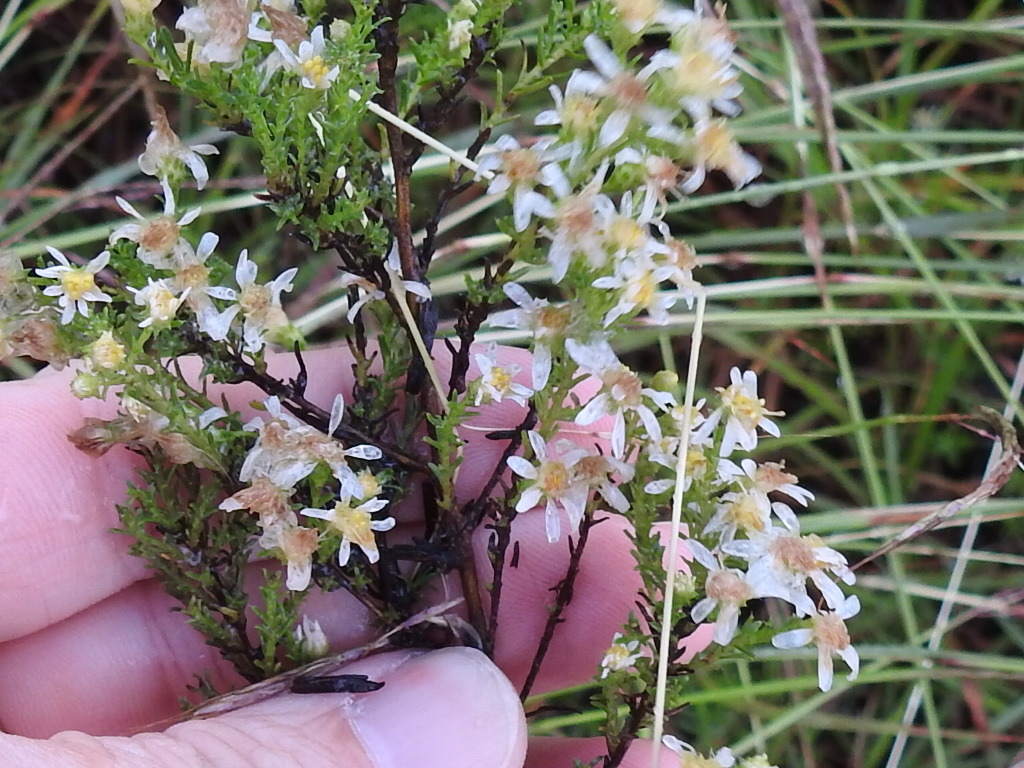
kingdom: Plantae
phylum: Tracheophyta
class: Magnoliopsida
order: Asterales
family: Asteraceae
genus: Symphyotrichum
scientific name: Symphyotrichum ericoides
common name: Heath aster
